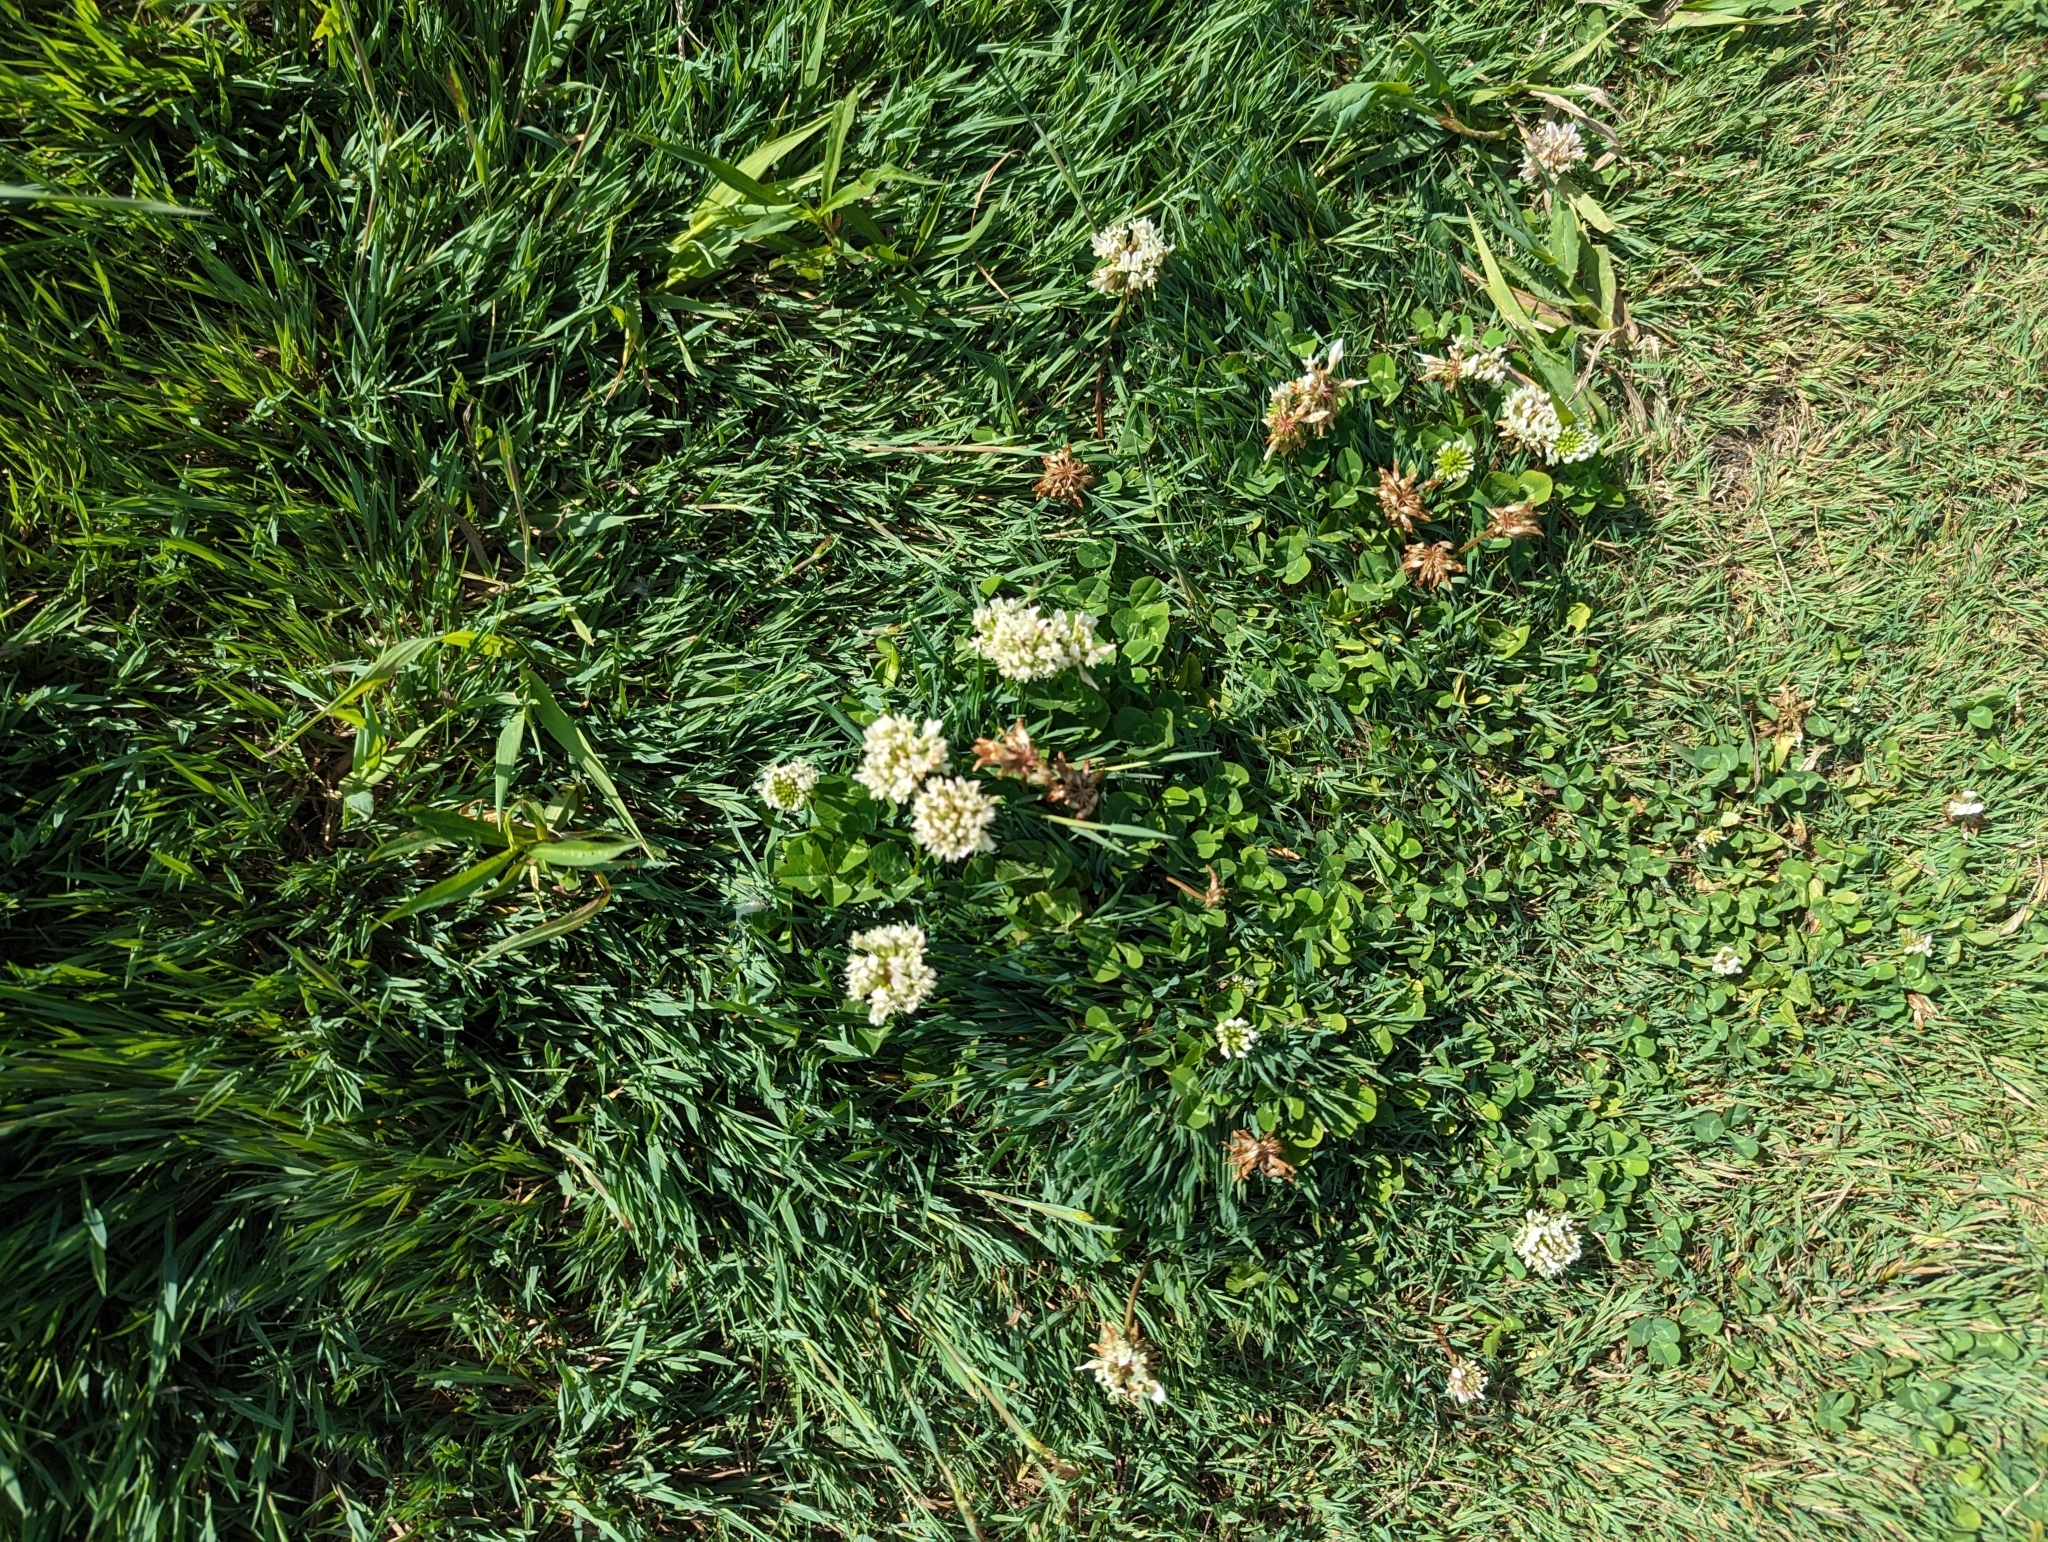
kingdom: Plantae
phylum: Tracheophyta
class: Magnoliopsida
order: Fabales
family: Fabaceae
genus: Trifolium
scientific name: Trifolium repens
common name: White clover
